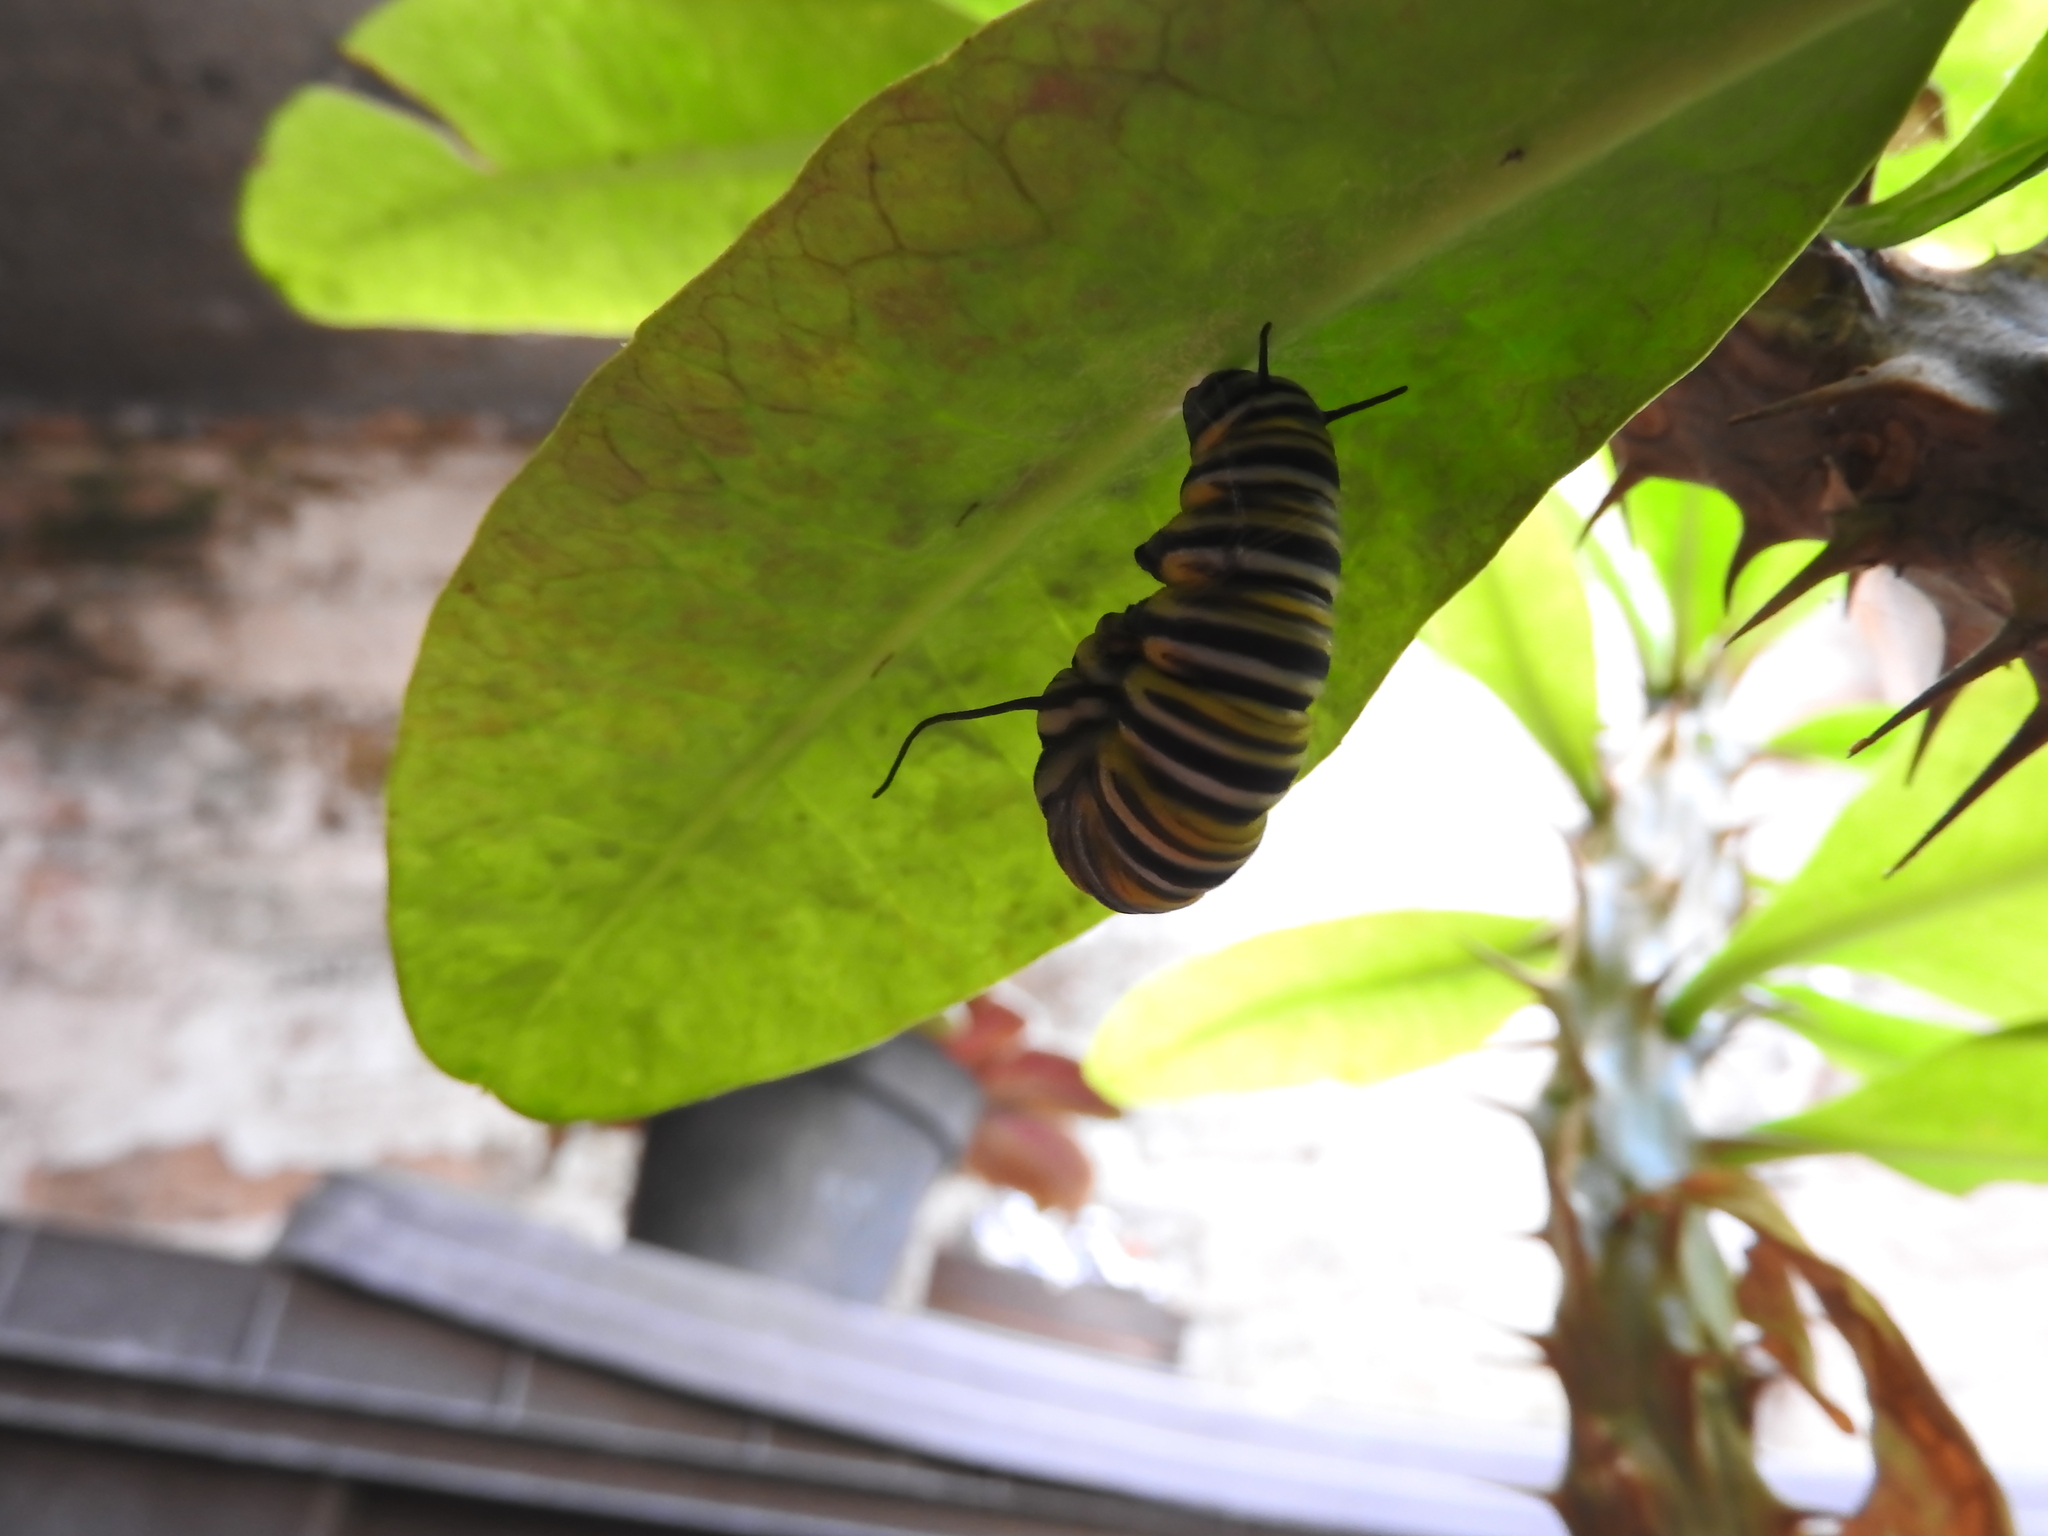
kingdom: Animalia
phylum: Arthropoda
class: Insecta
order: Lepidoptera
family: Nymphalidae
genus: Danaus
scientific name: Danaus plexippus
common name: Monarch
